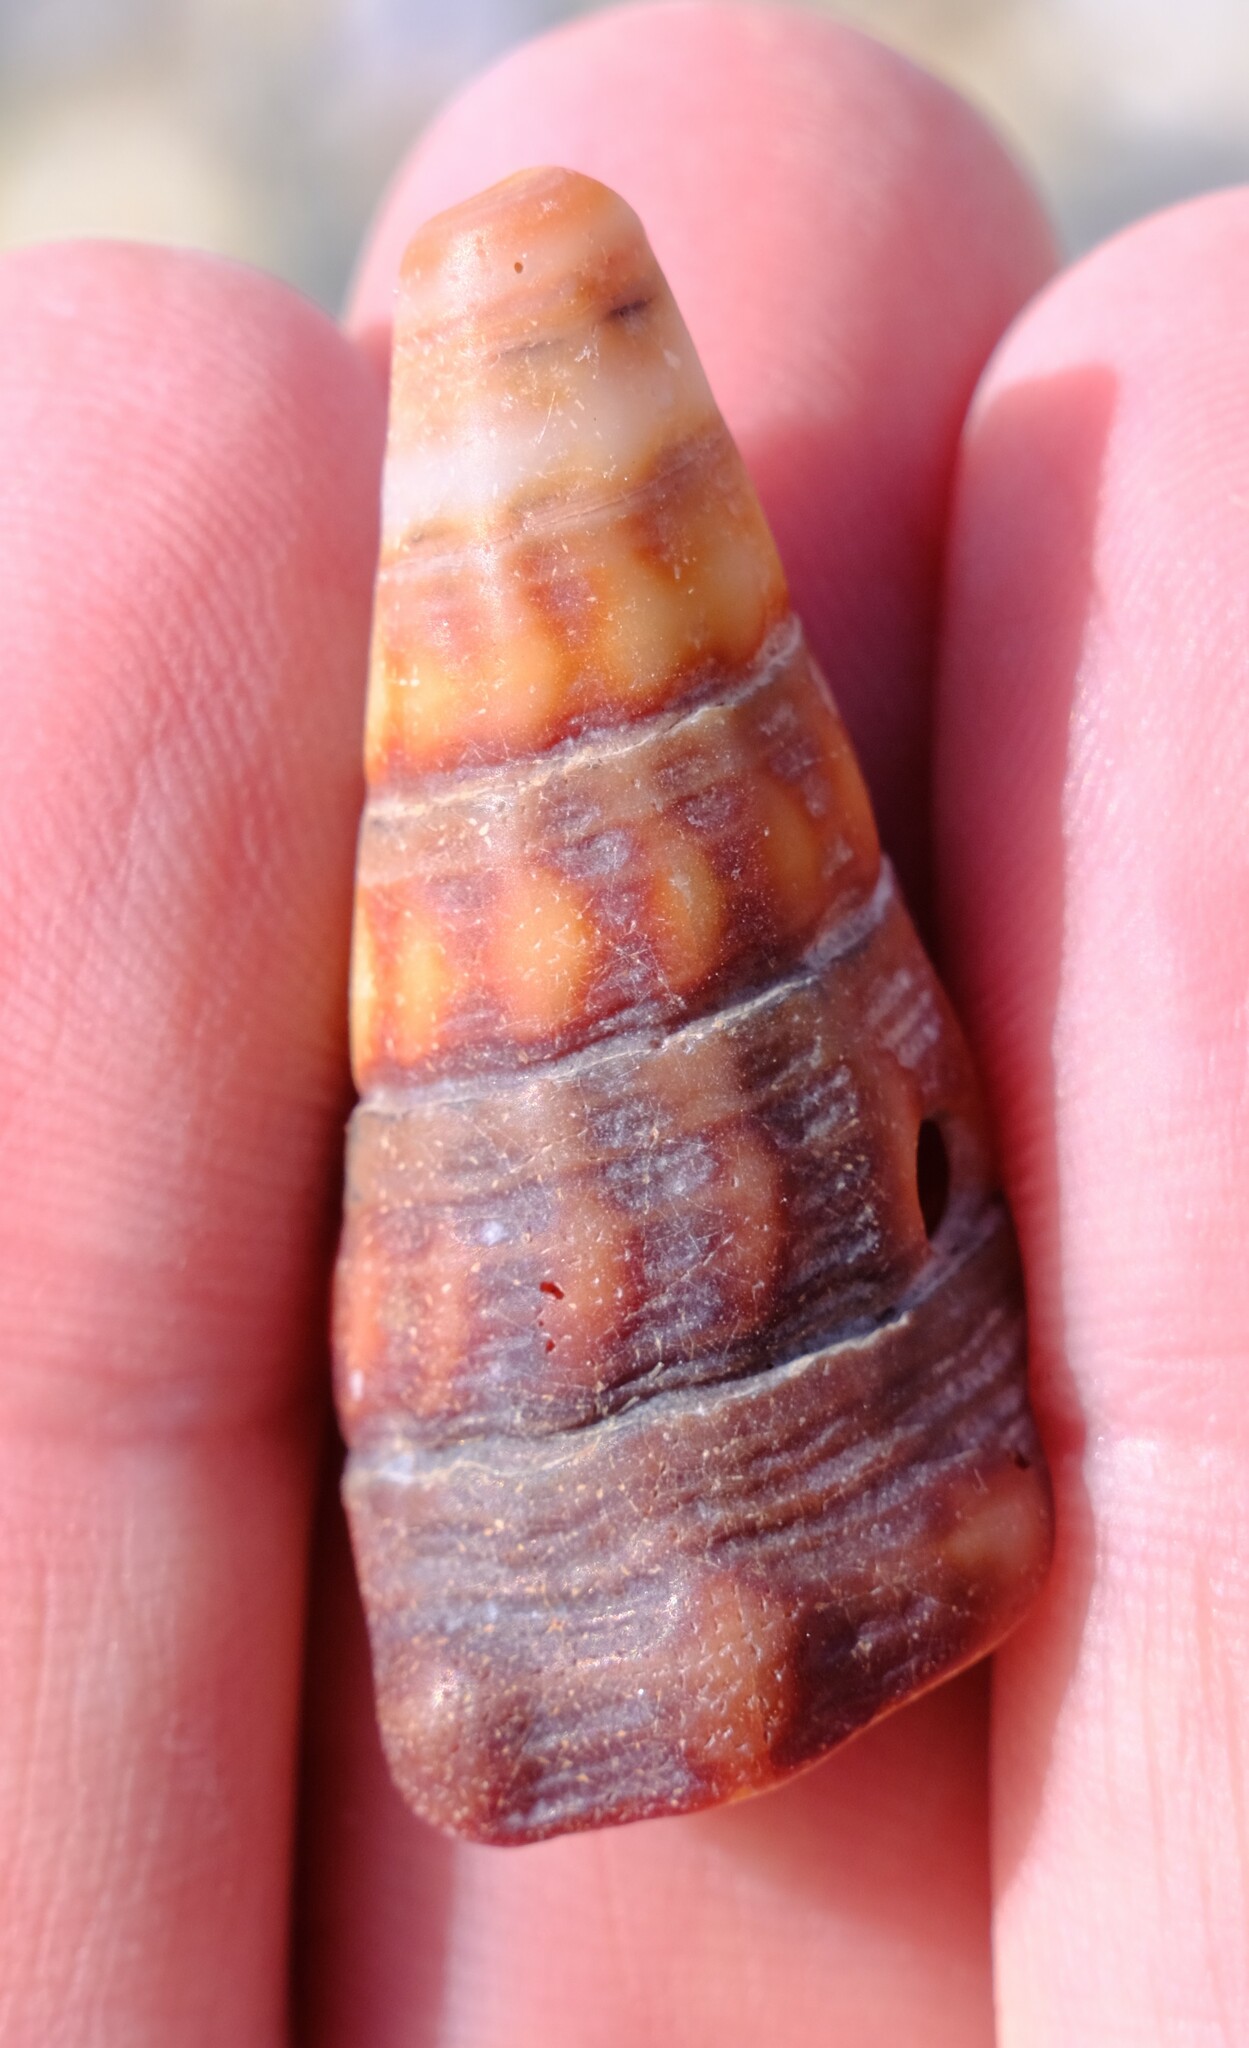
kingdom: Animalia
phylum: Mollusca
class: Gastropoda
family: Batillariidae
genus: Pyrazus
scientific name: Pyrazus ebeninus
